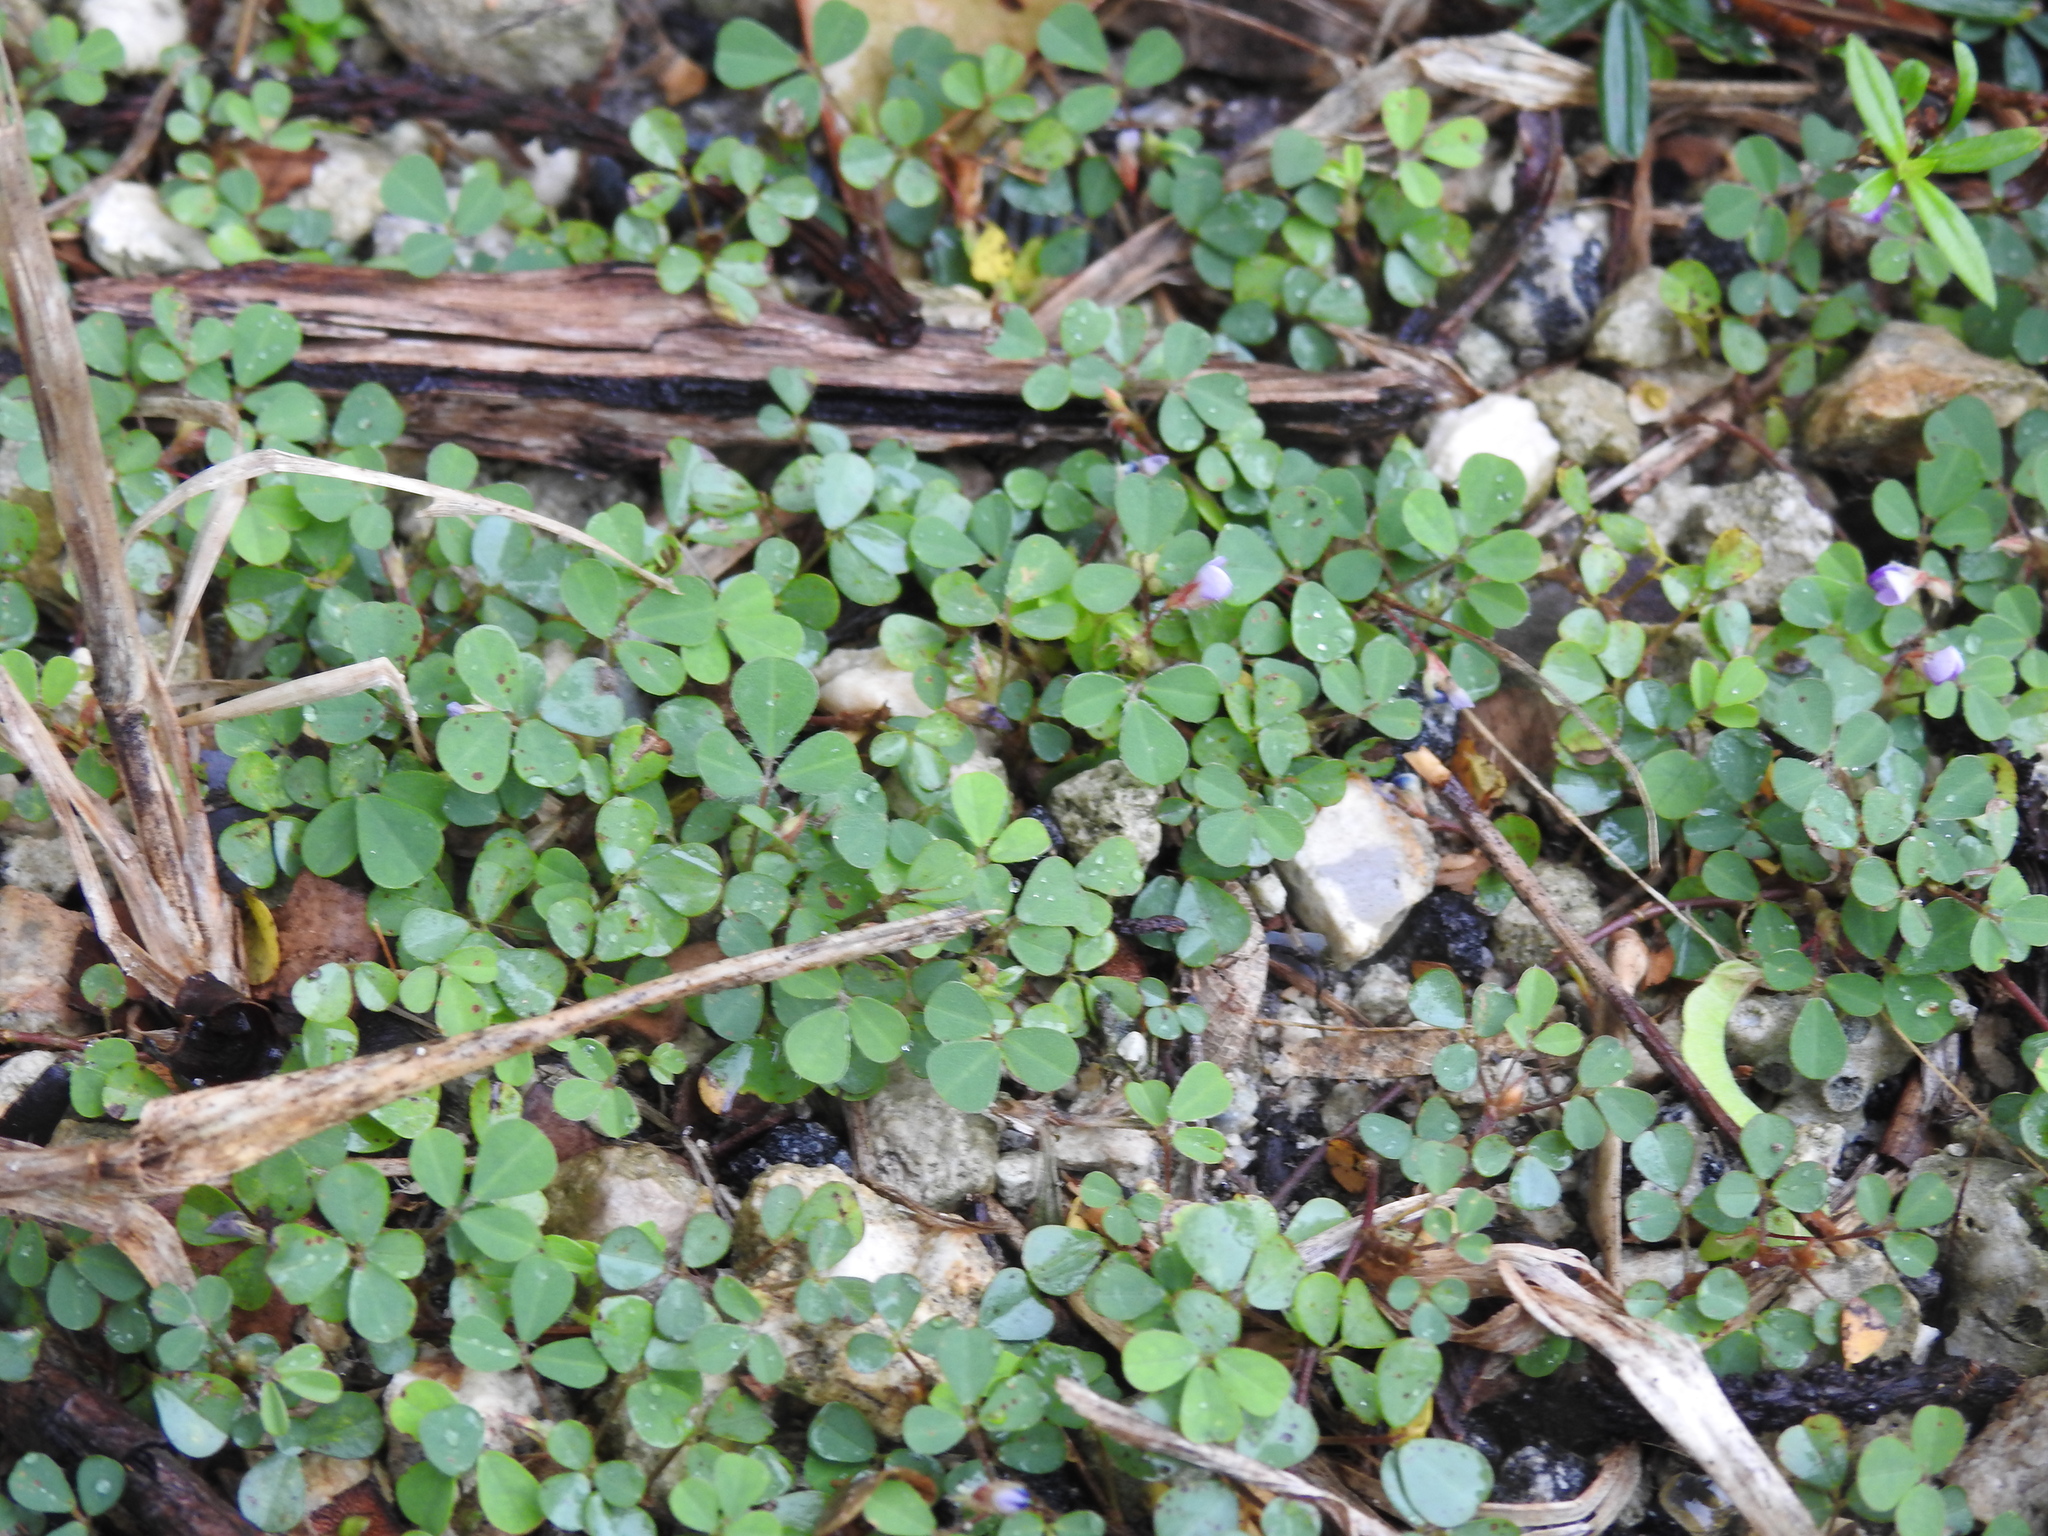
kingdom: Plantae
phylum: Tracheophyta
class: Magnoliopsida
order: Fabales
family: Fabaceae
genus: Grona
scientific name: Grona triflora
